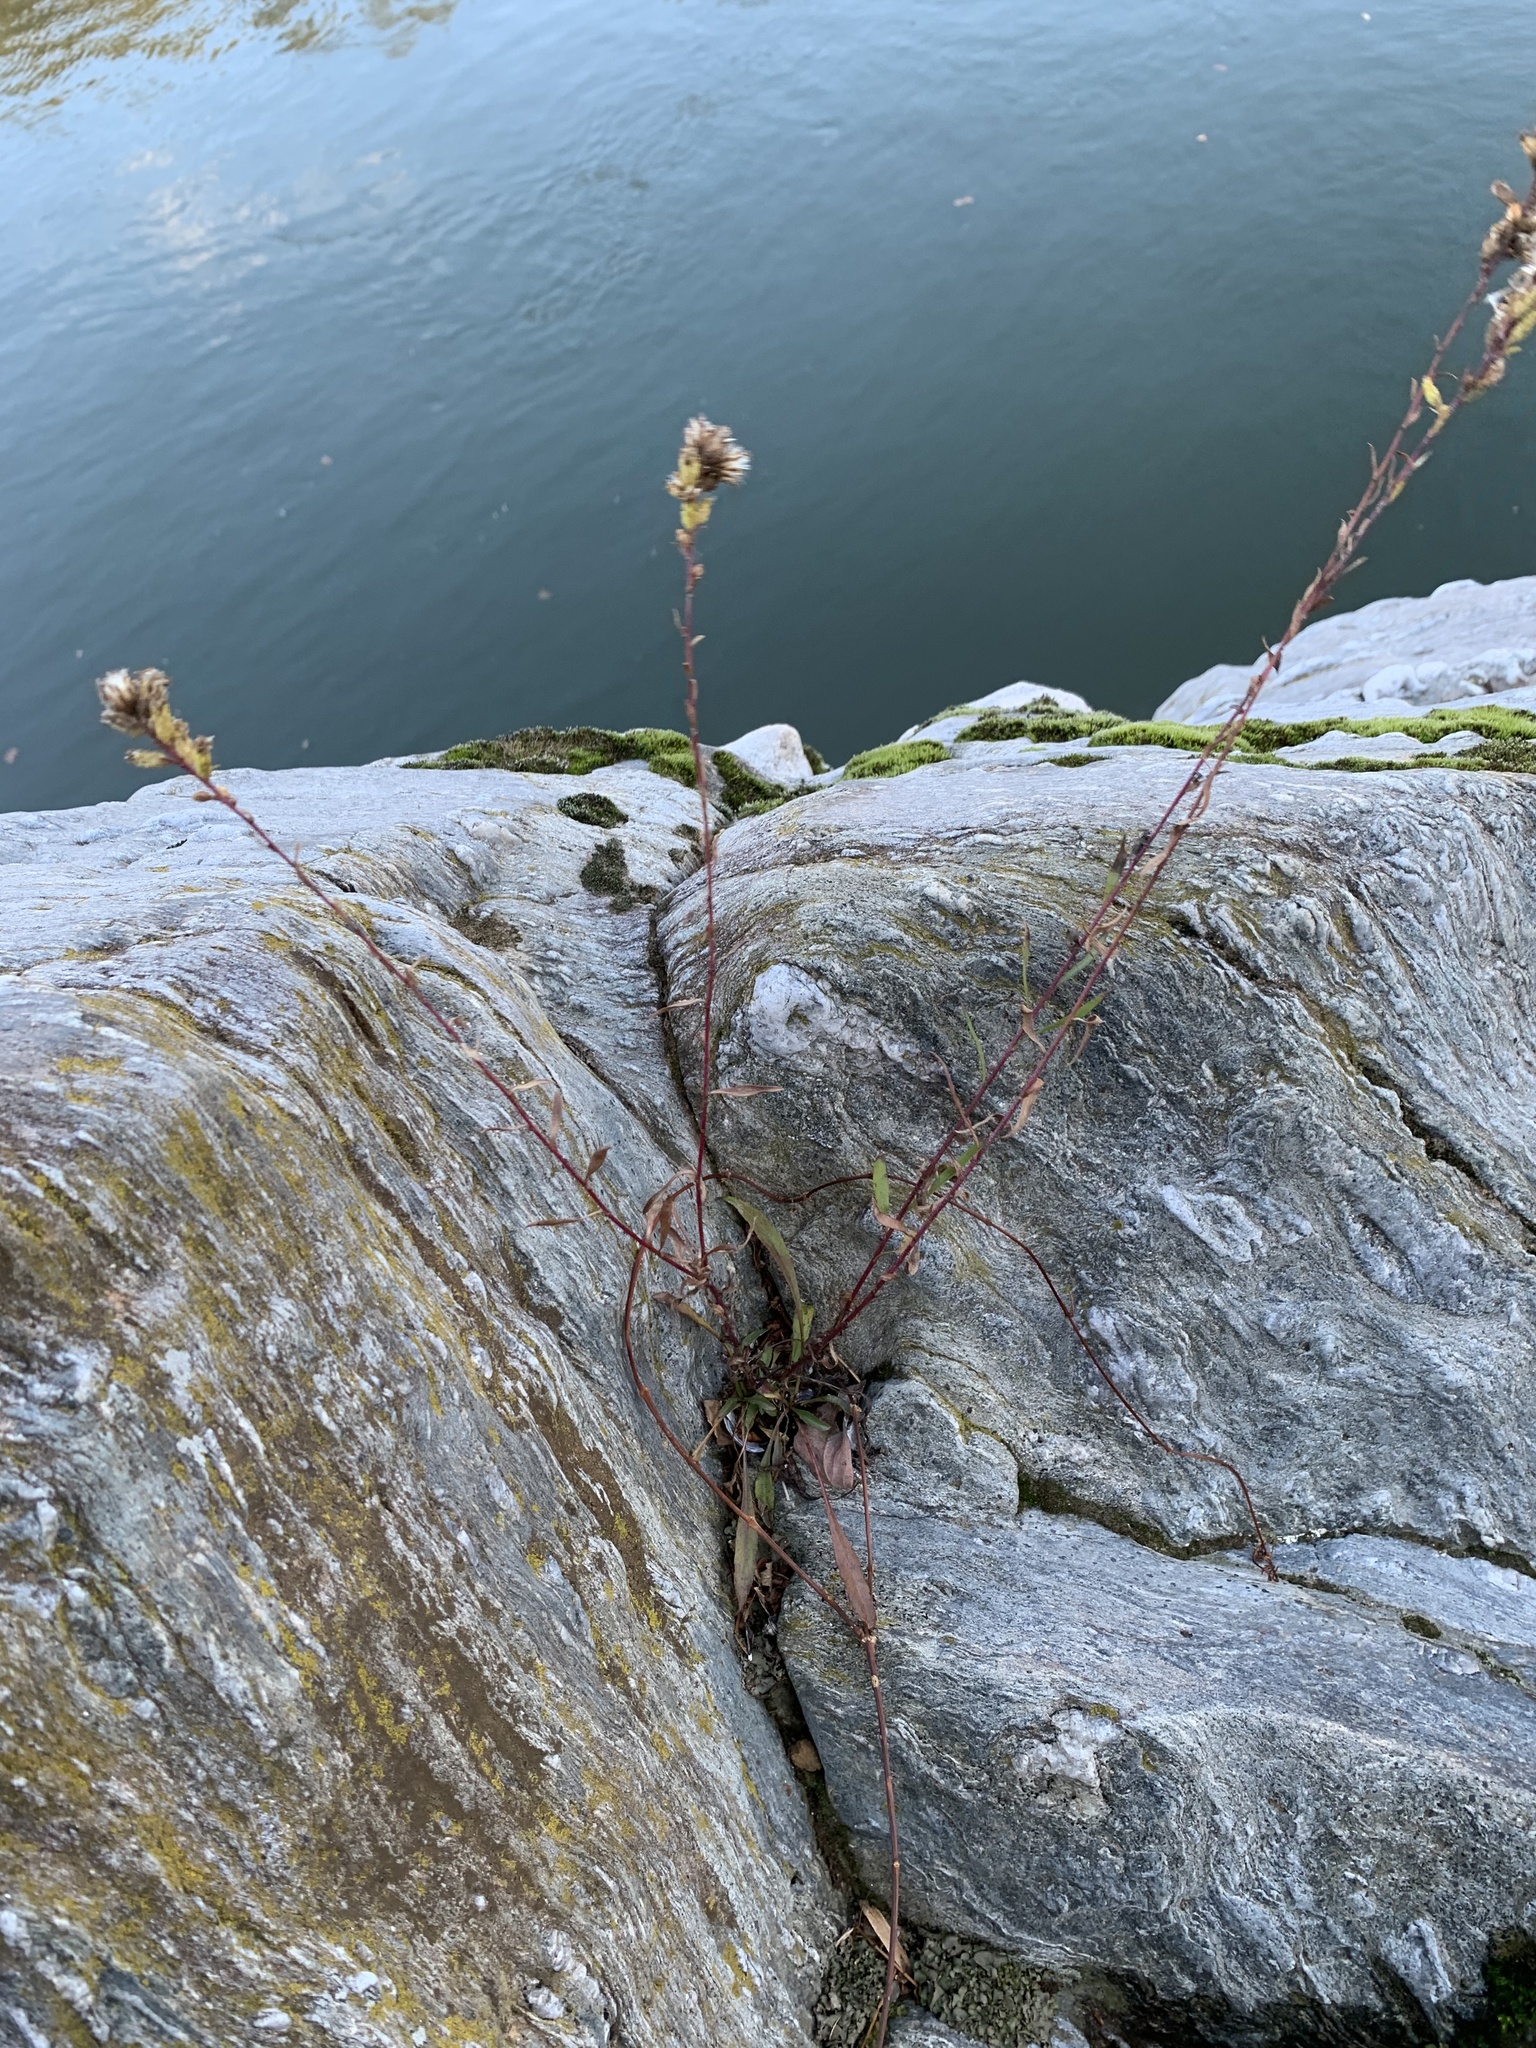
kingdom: Plantae
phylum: Tracheophyta
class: Magnoliopsida
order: Asterales
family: Asteraceae
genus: Solidago
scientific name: Solidago racemosa
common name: Lake ontario goldenrod
